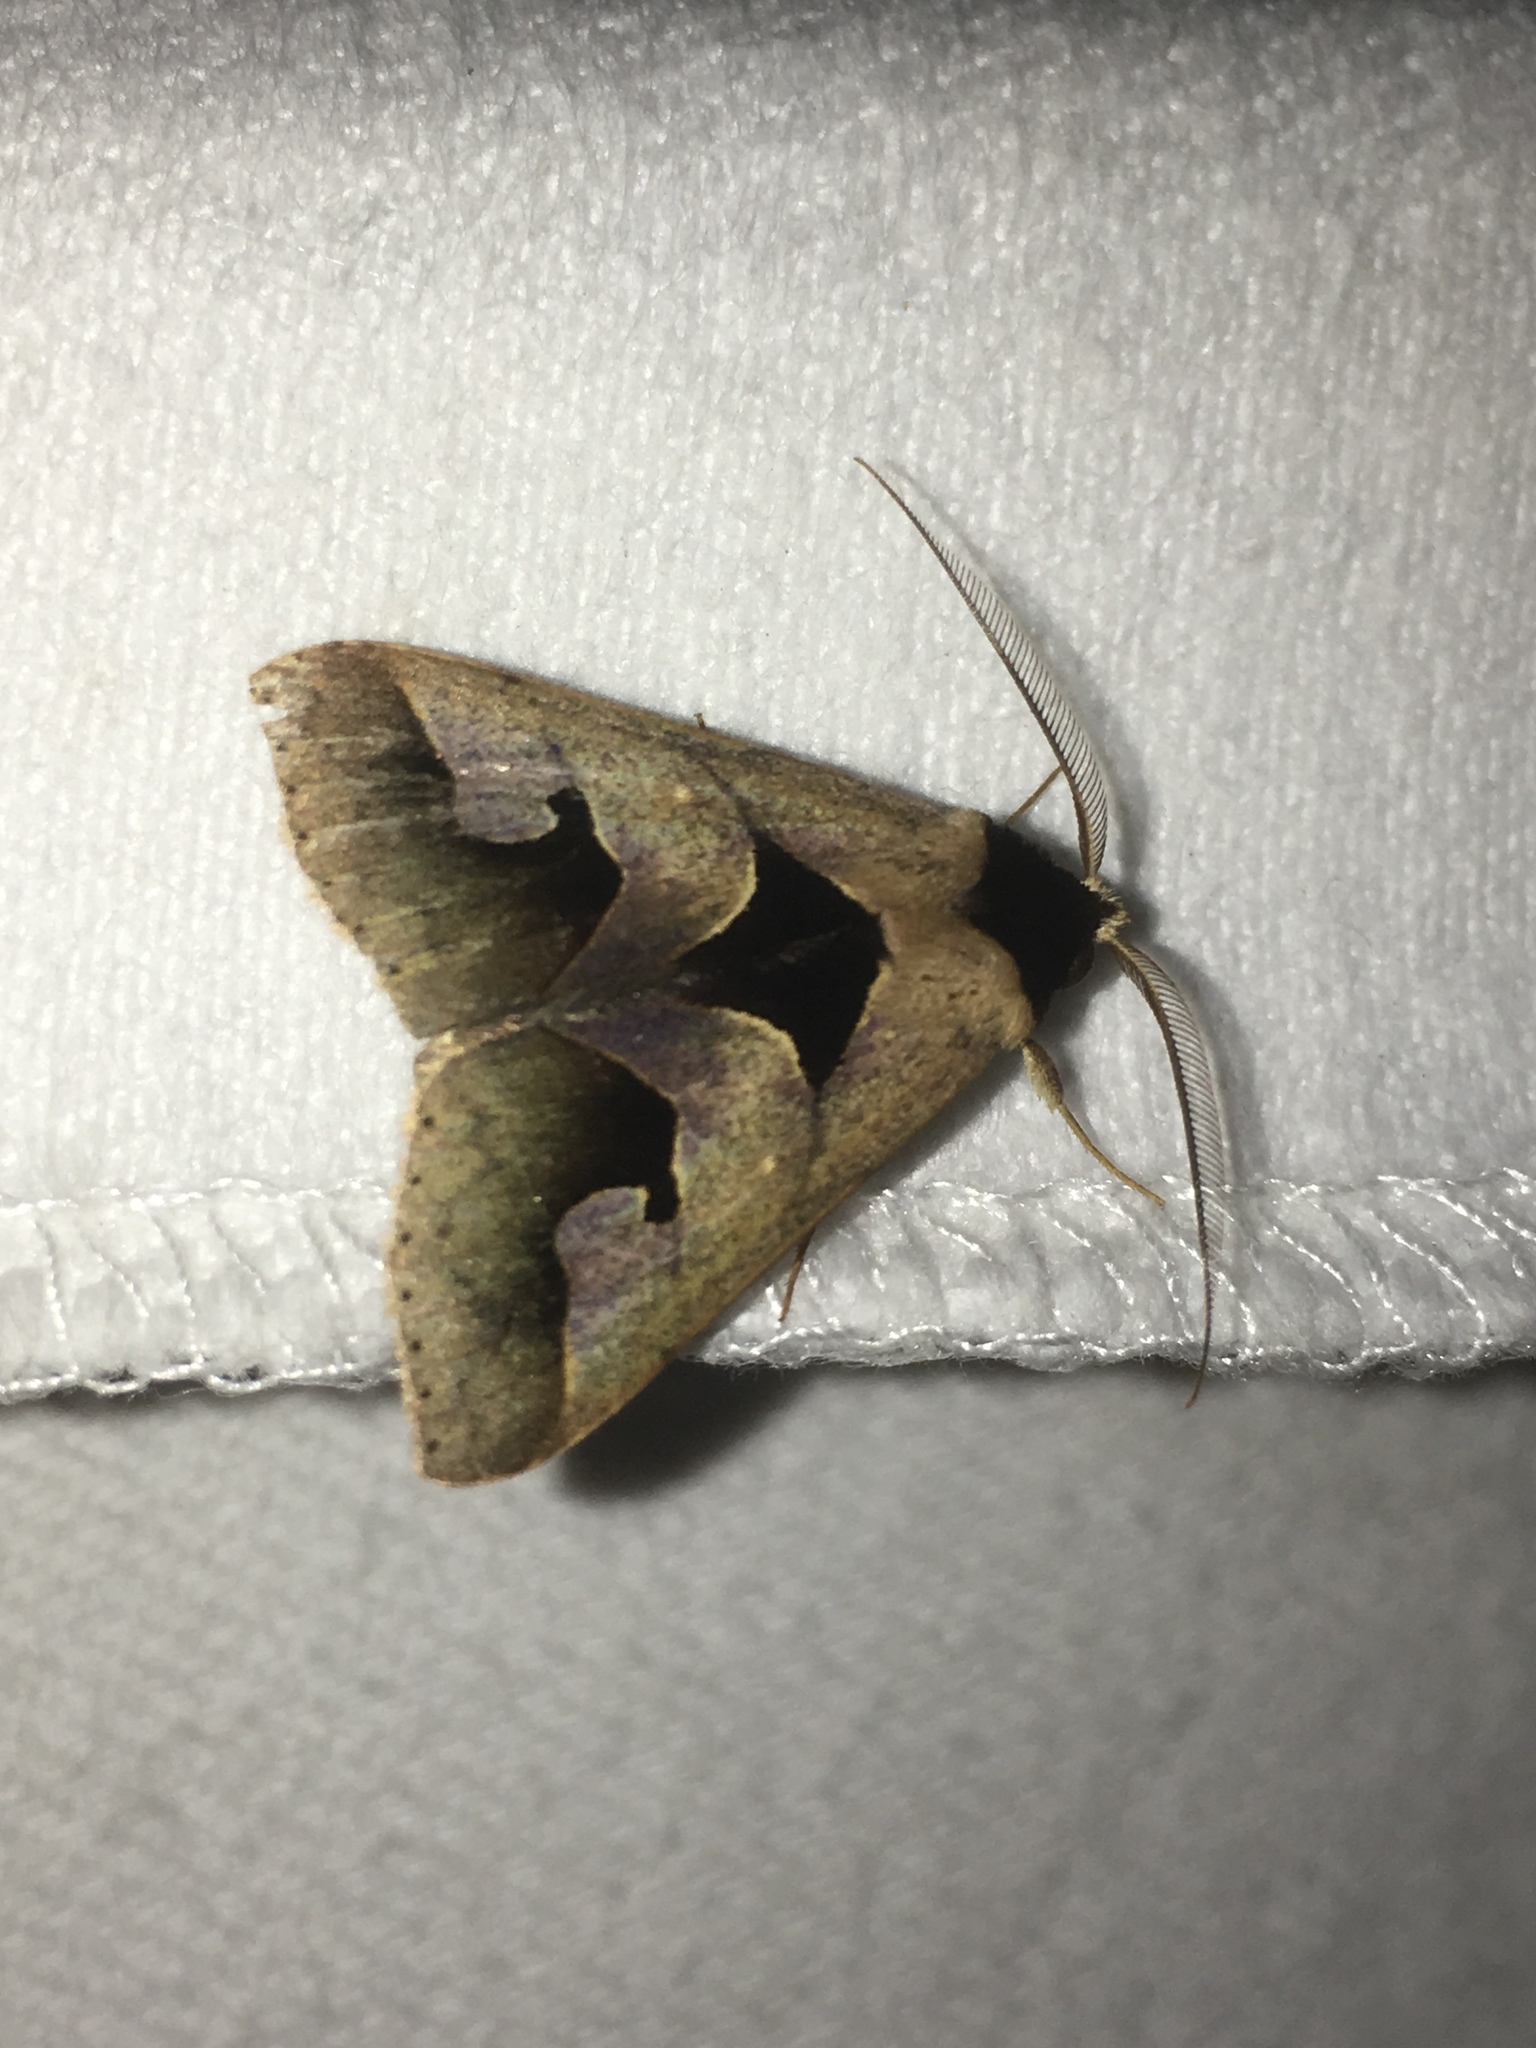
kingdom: Animalia
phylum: Arthropoda
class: Insecta
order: Lepidoptera
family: Erebidae
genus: Anoba
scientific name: Anoba trigonoides
